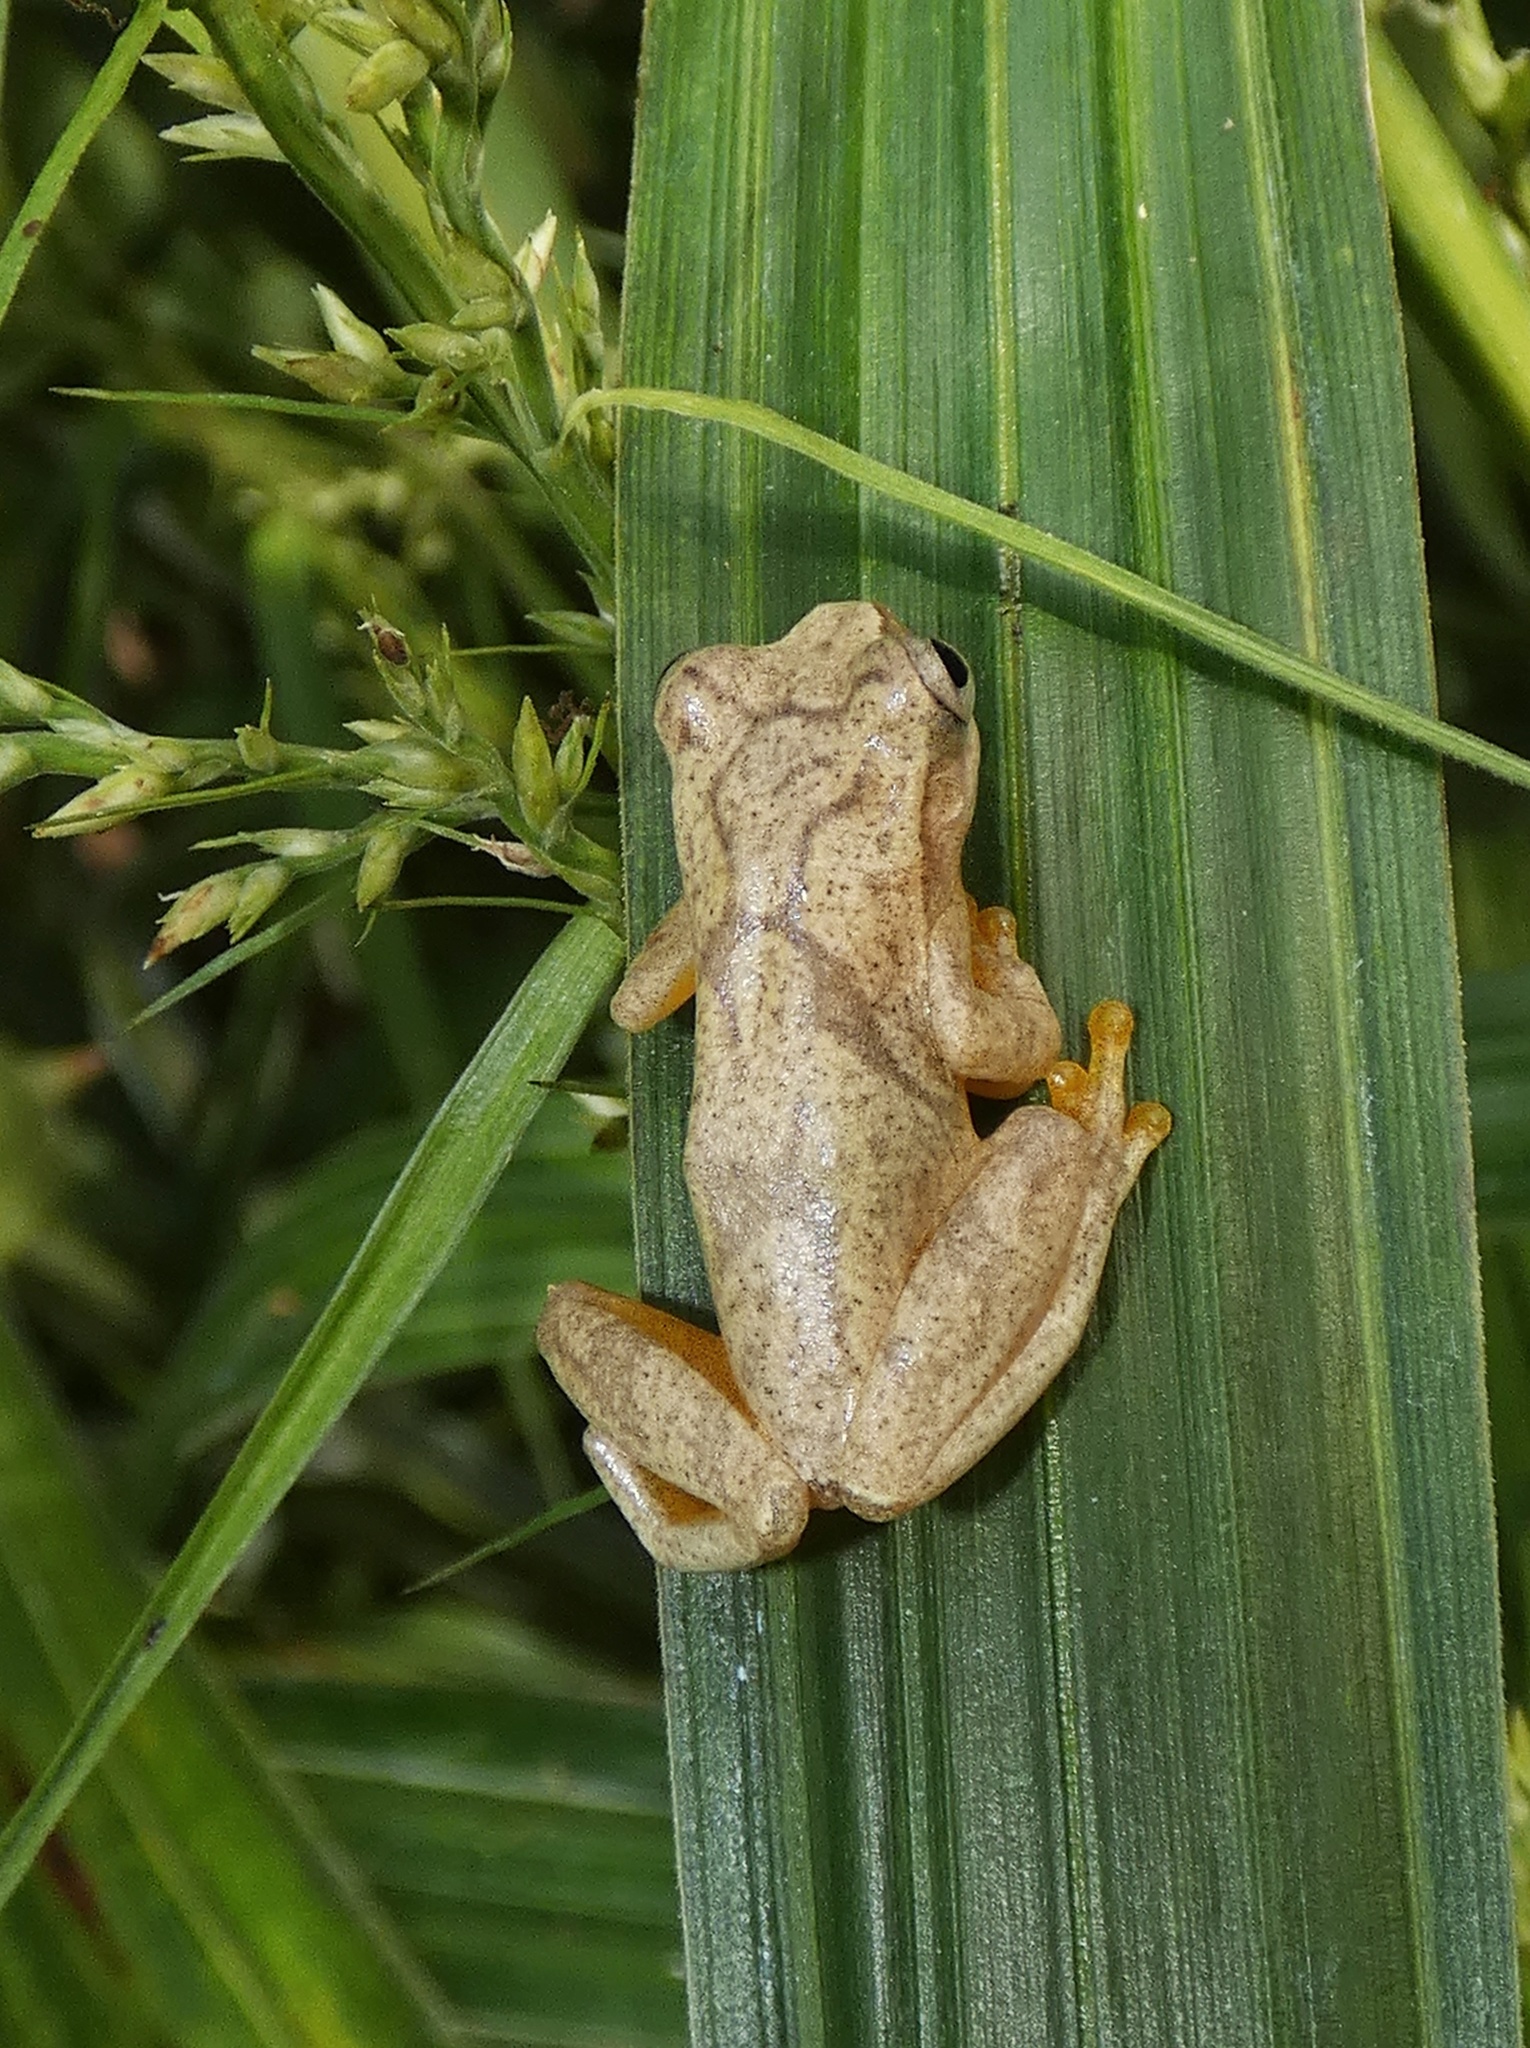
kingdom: Animalia
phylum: Chordata
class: Amphibia
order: Anura
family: Hylidae
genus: Dendropsophus
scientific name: Dendropsophus phlebodes
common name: San carlos treefrog
